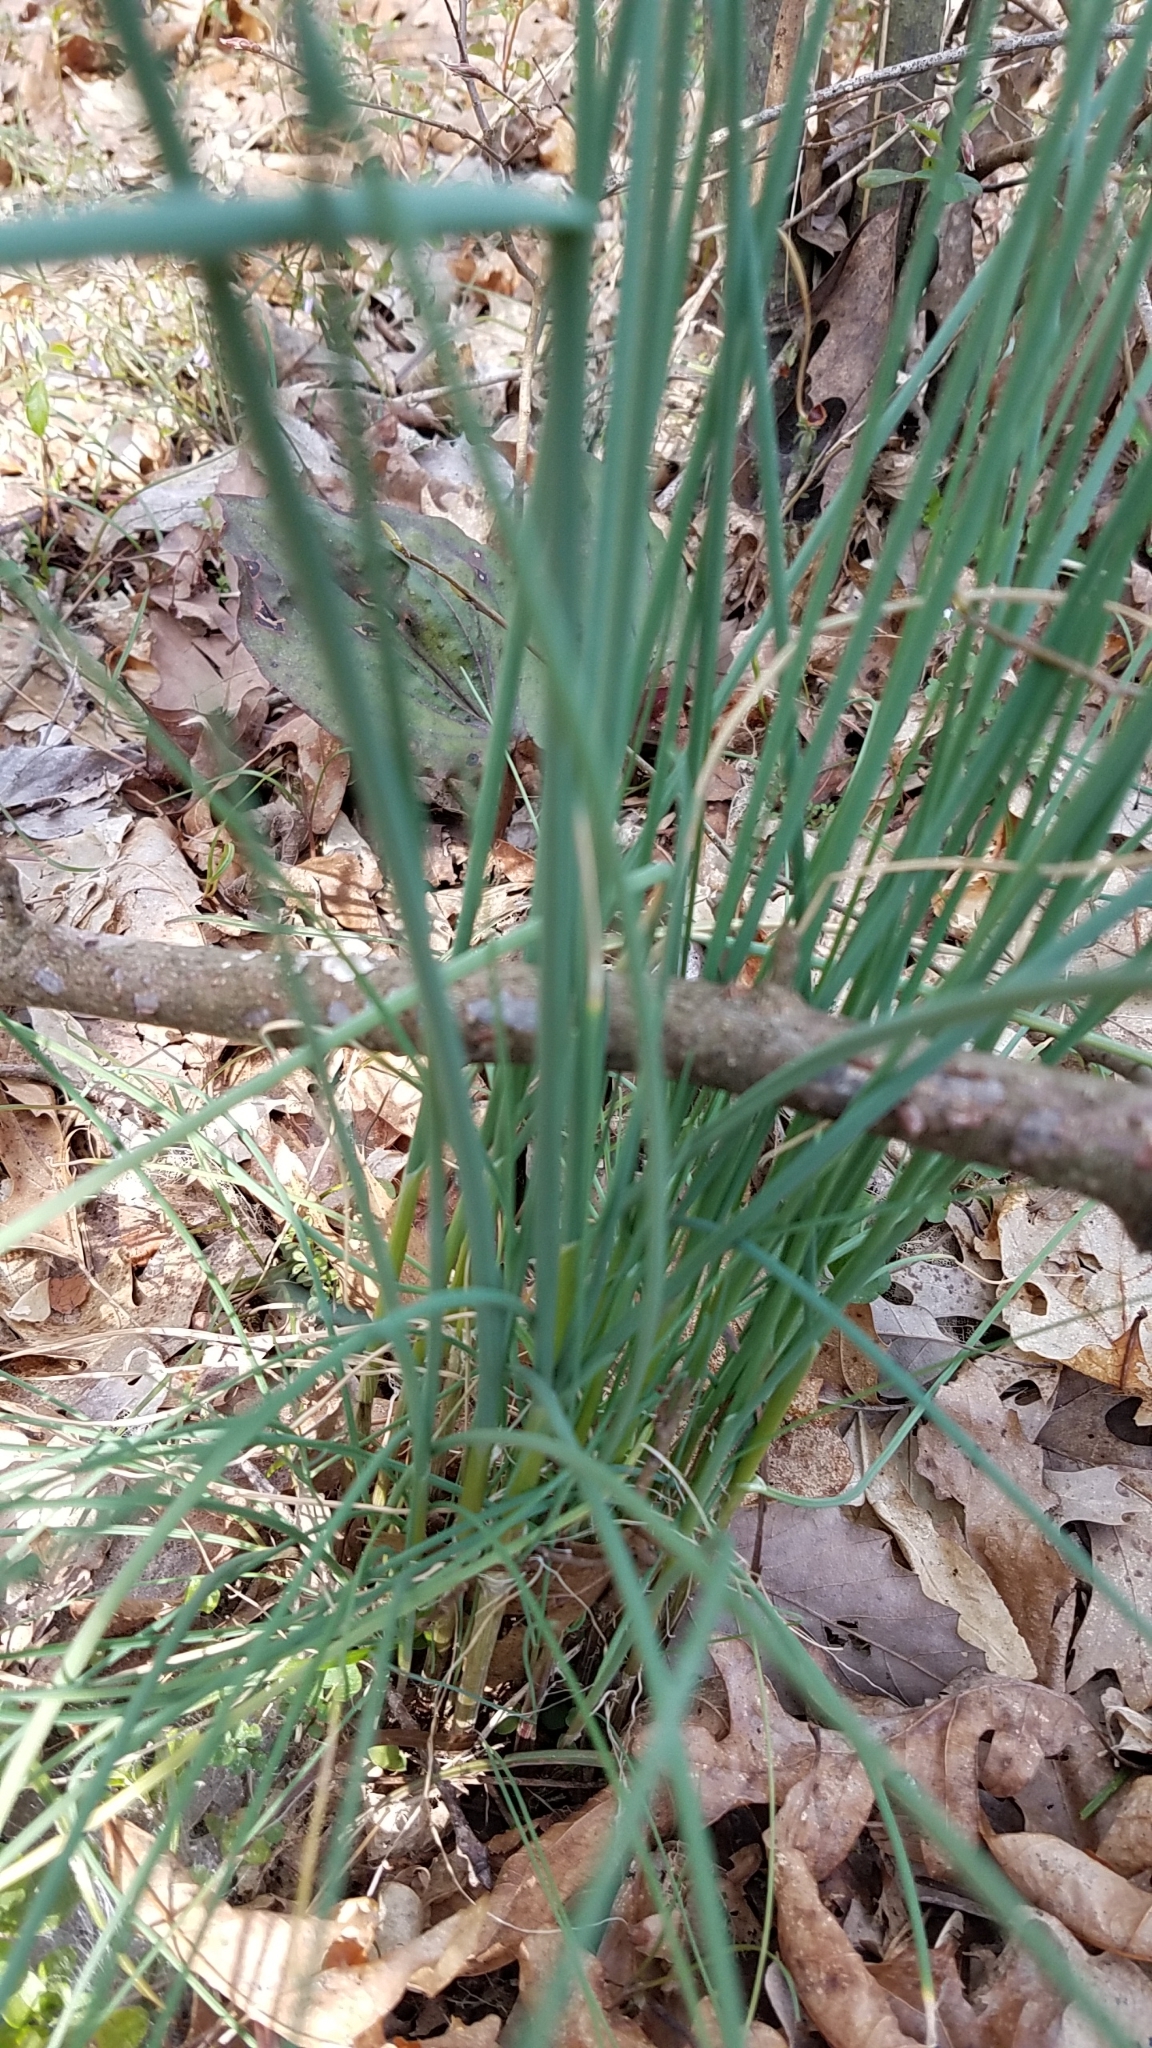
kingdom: Plantae
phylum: Tracheophyta
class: Liliopsida
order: Asparagales
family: Amaryllidaceae
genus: Allium
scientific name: Allium vineale
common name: Crow garlic
